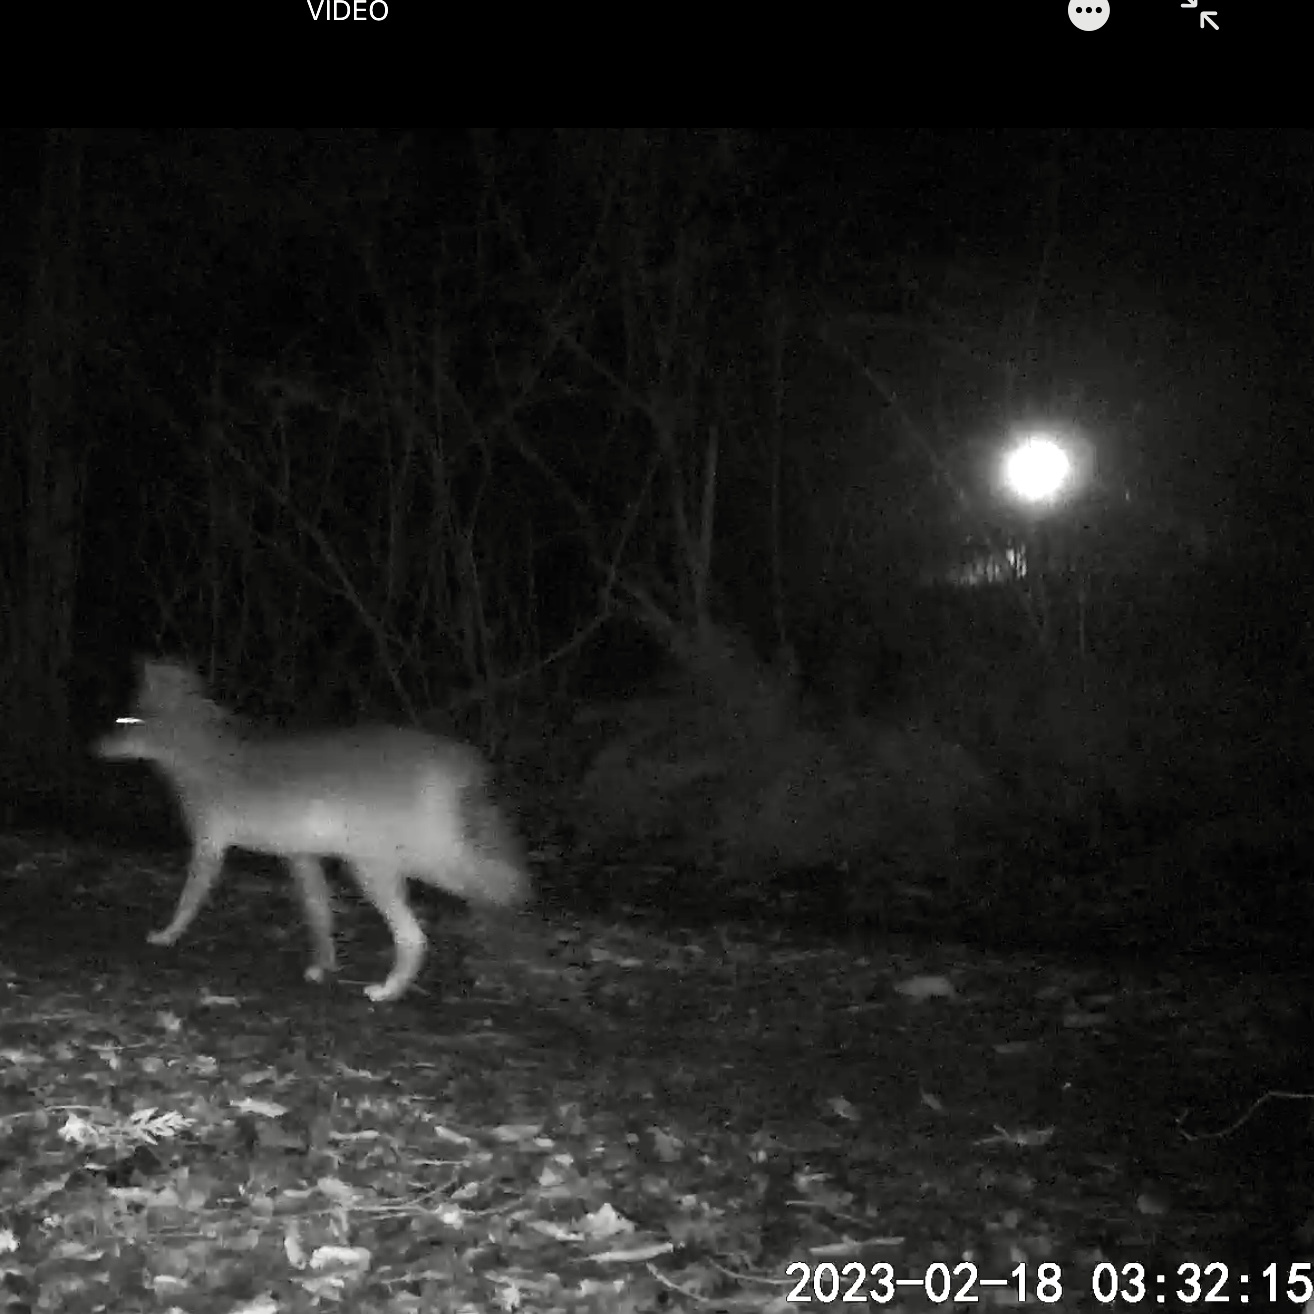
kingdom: Animalia
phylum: Chordata
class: Mammalia
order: Carnivora
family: Canidae
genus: Canis
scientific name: Canis latrans
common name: Coyote
